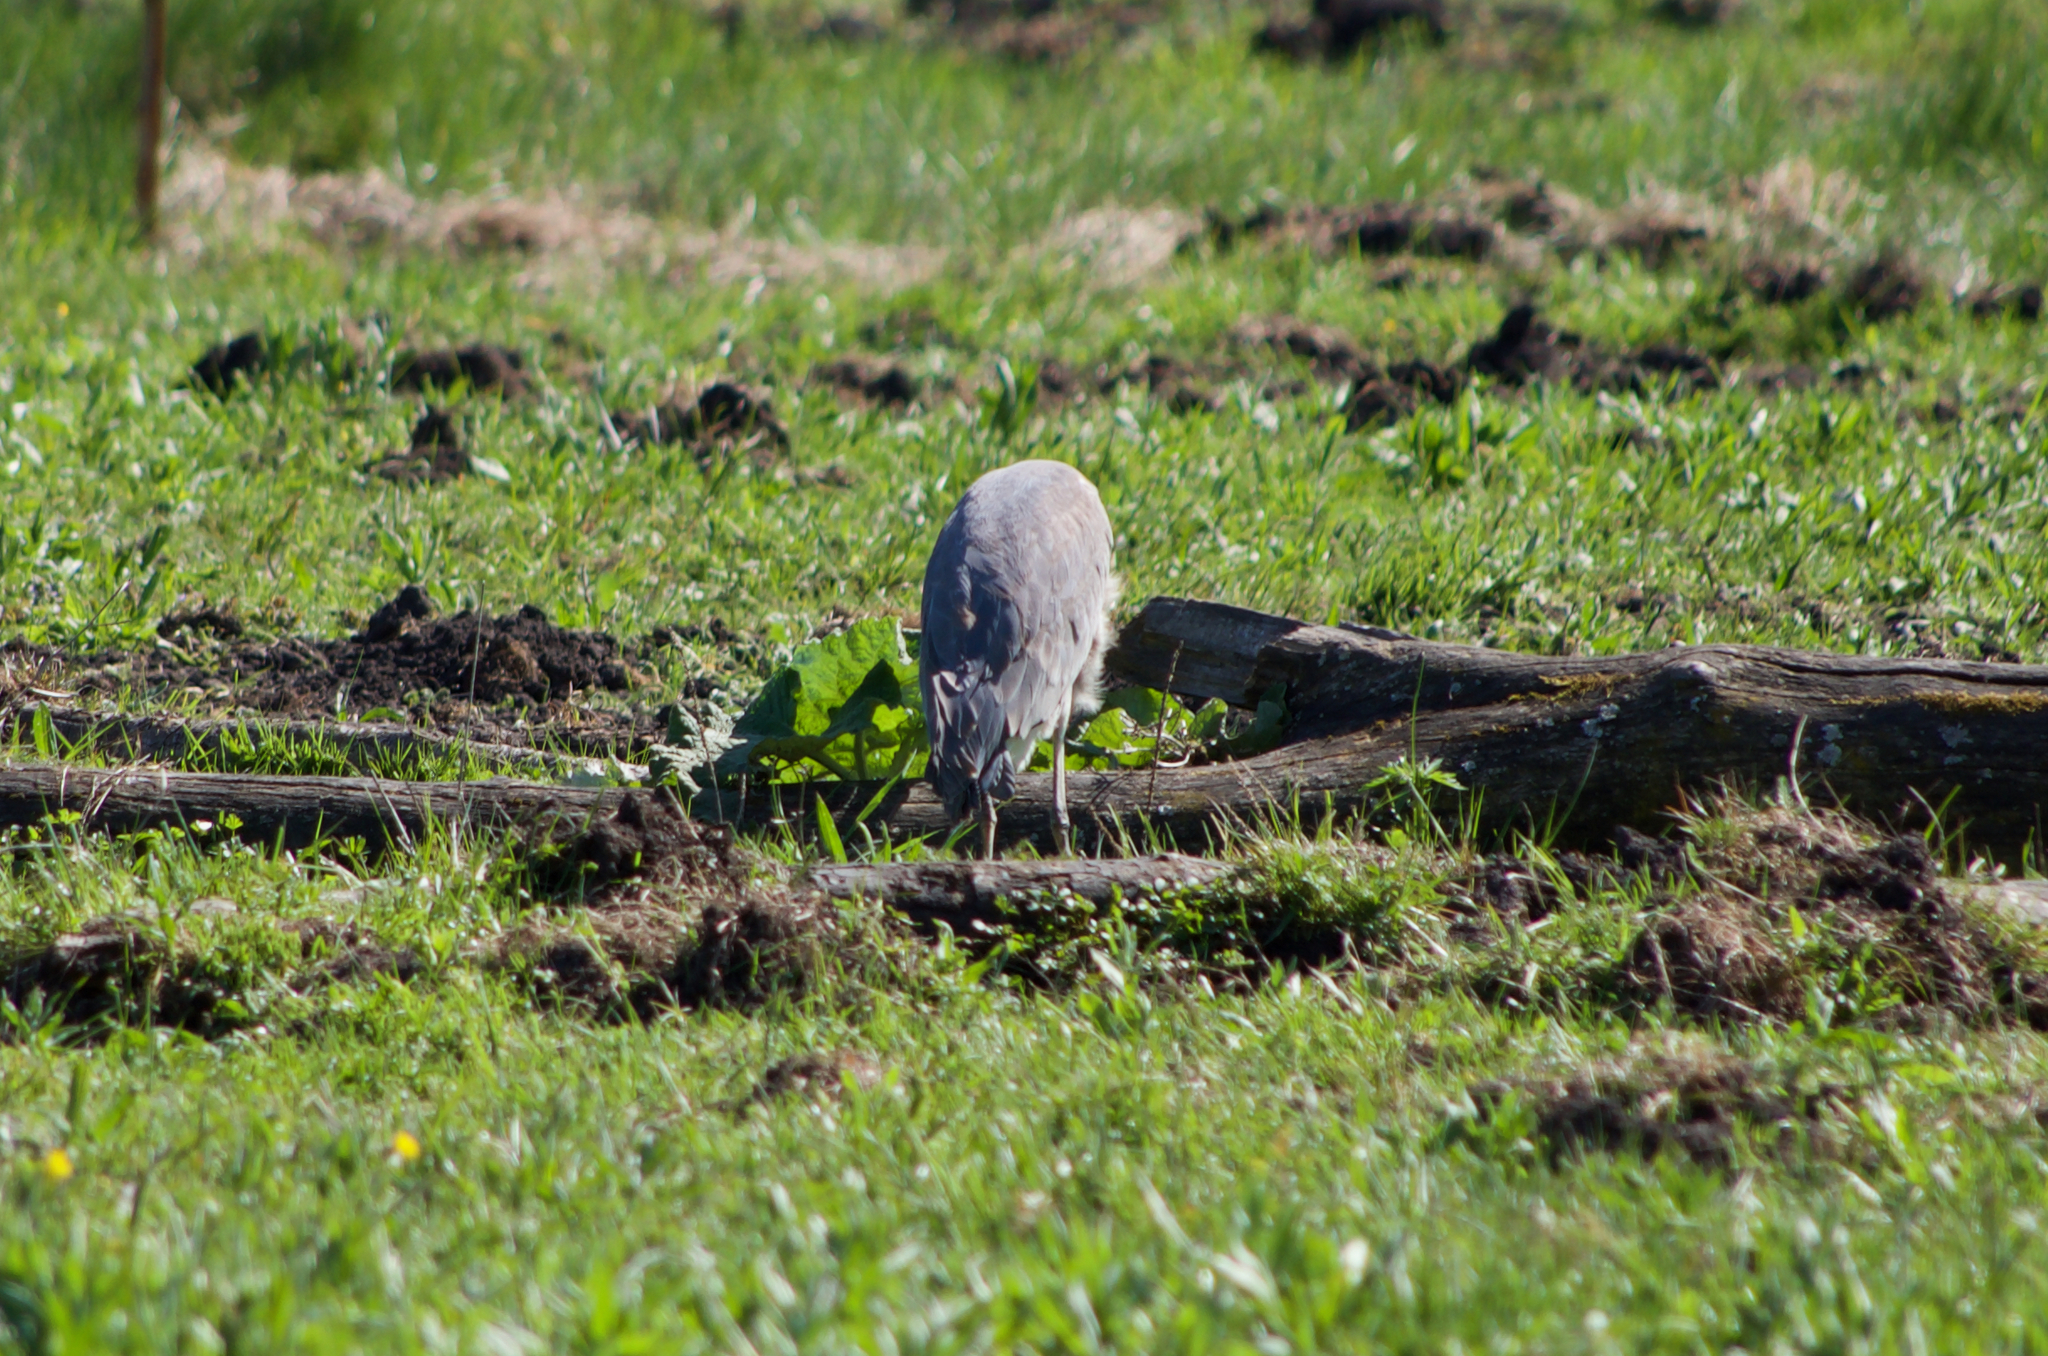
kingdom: Animalia
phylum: Chordata
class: Aves
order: Pelecaniformes
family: Ardeidae
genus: Ardea
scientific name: Ardea cinerea
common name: Grey heron
